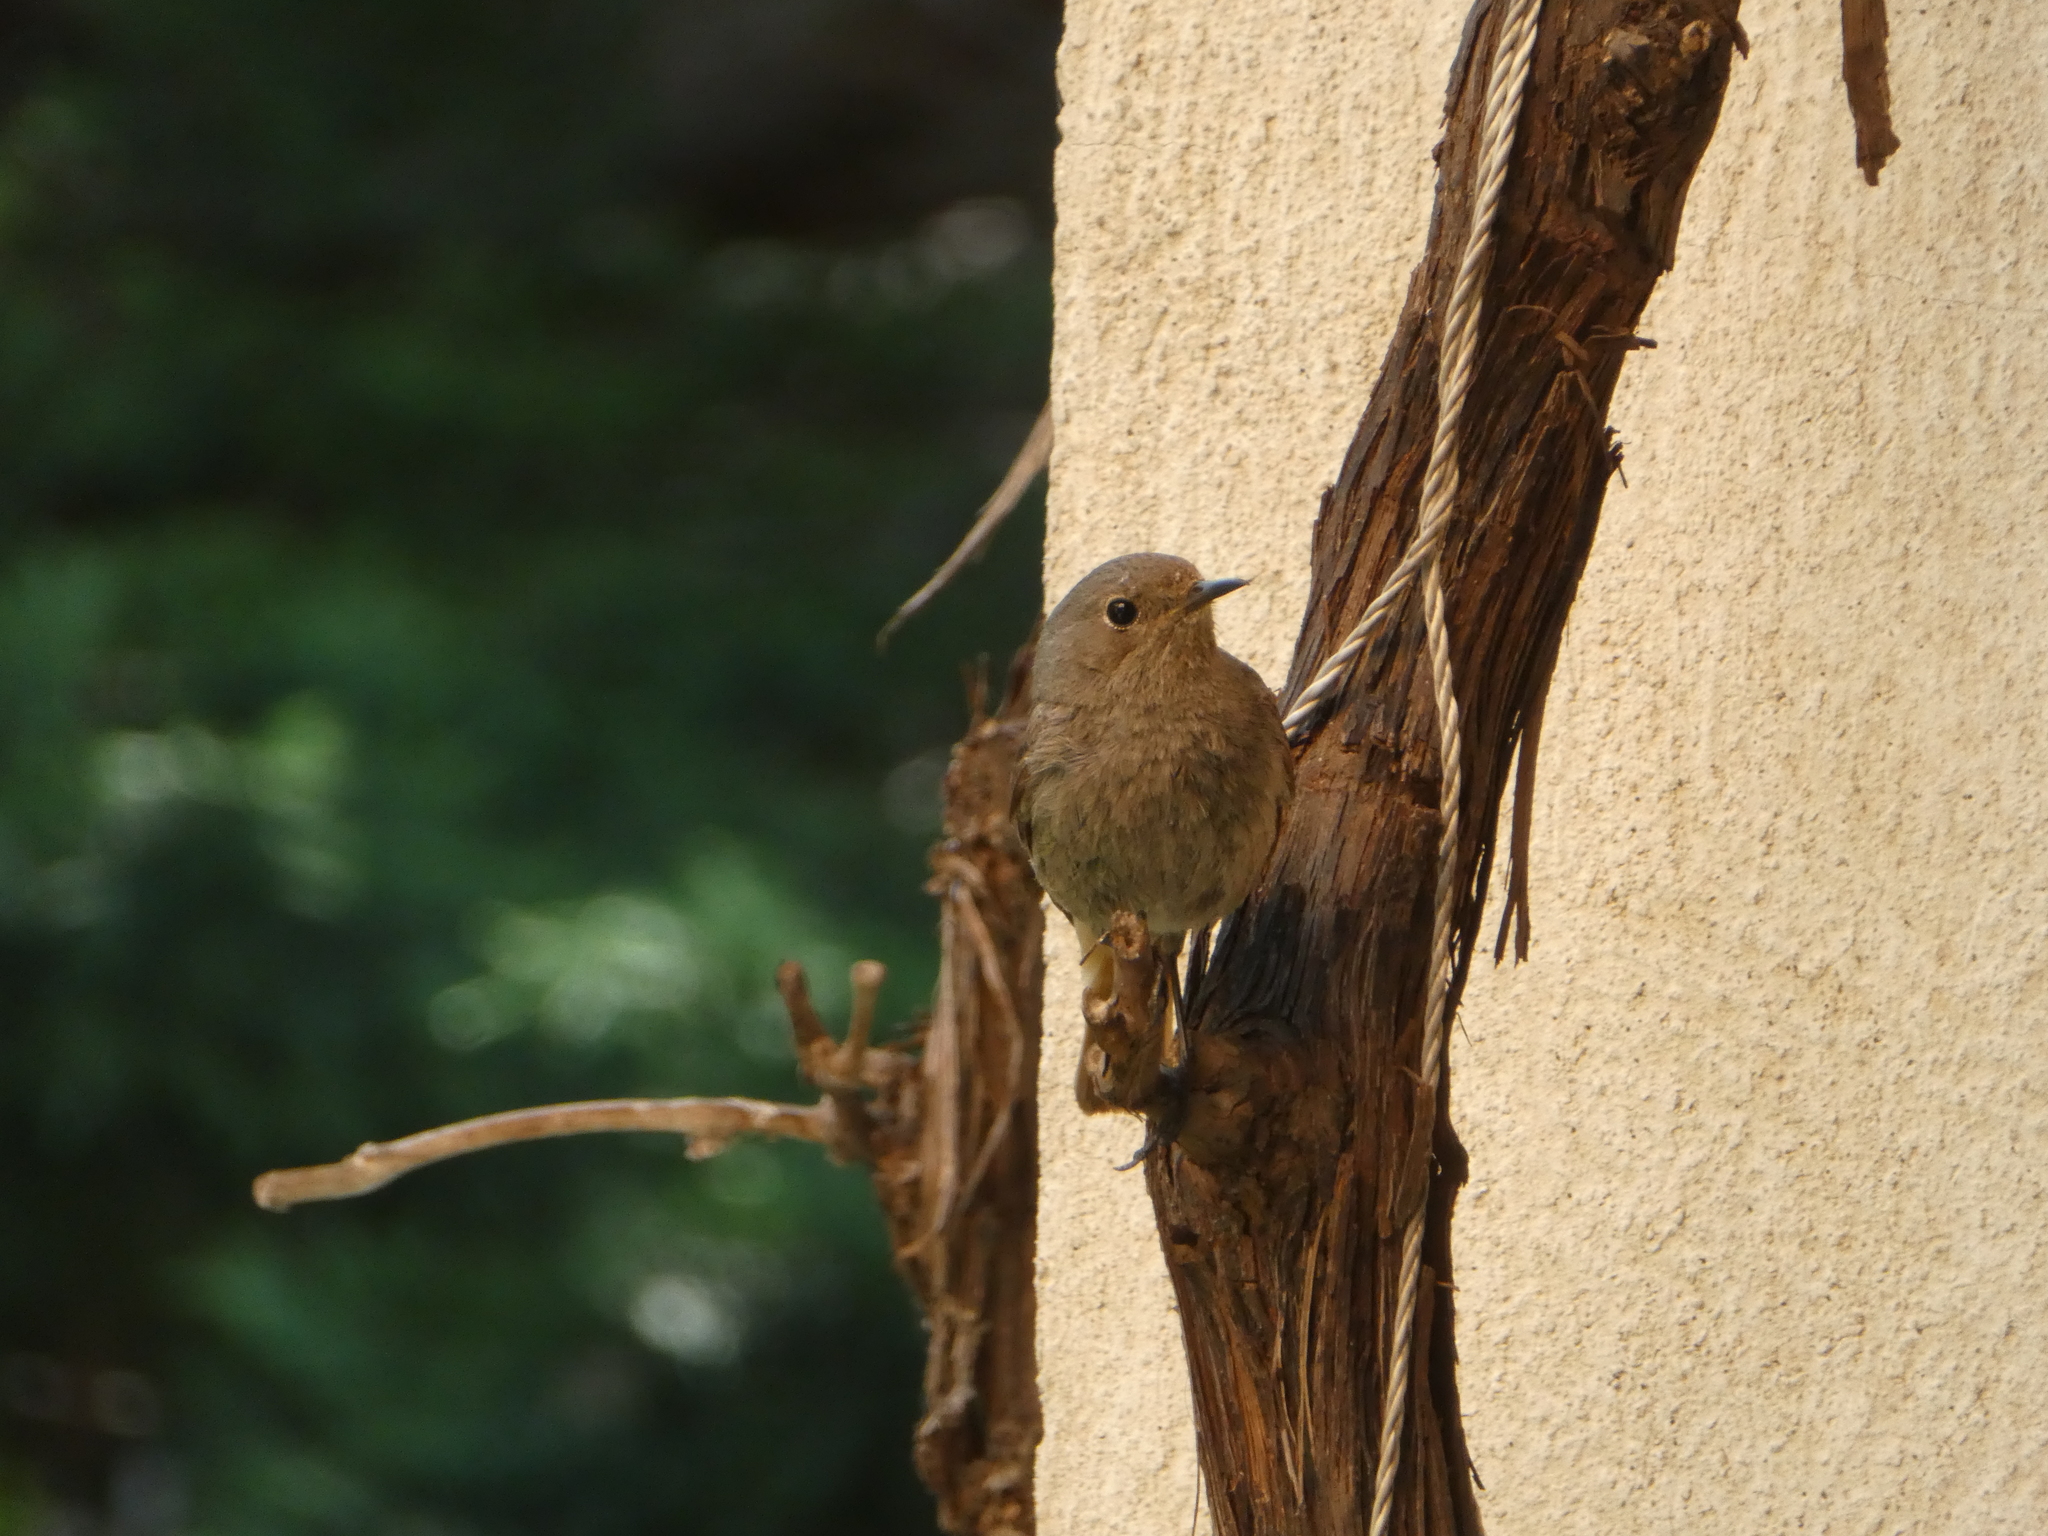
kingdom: Animalia
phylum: Chordata
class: Aves
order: Passeriformes
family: Muscicapidae
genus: Phoenicurus
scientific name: Phoenicurus ochruros
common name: Black redstart
